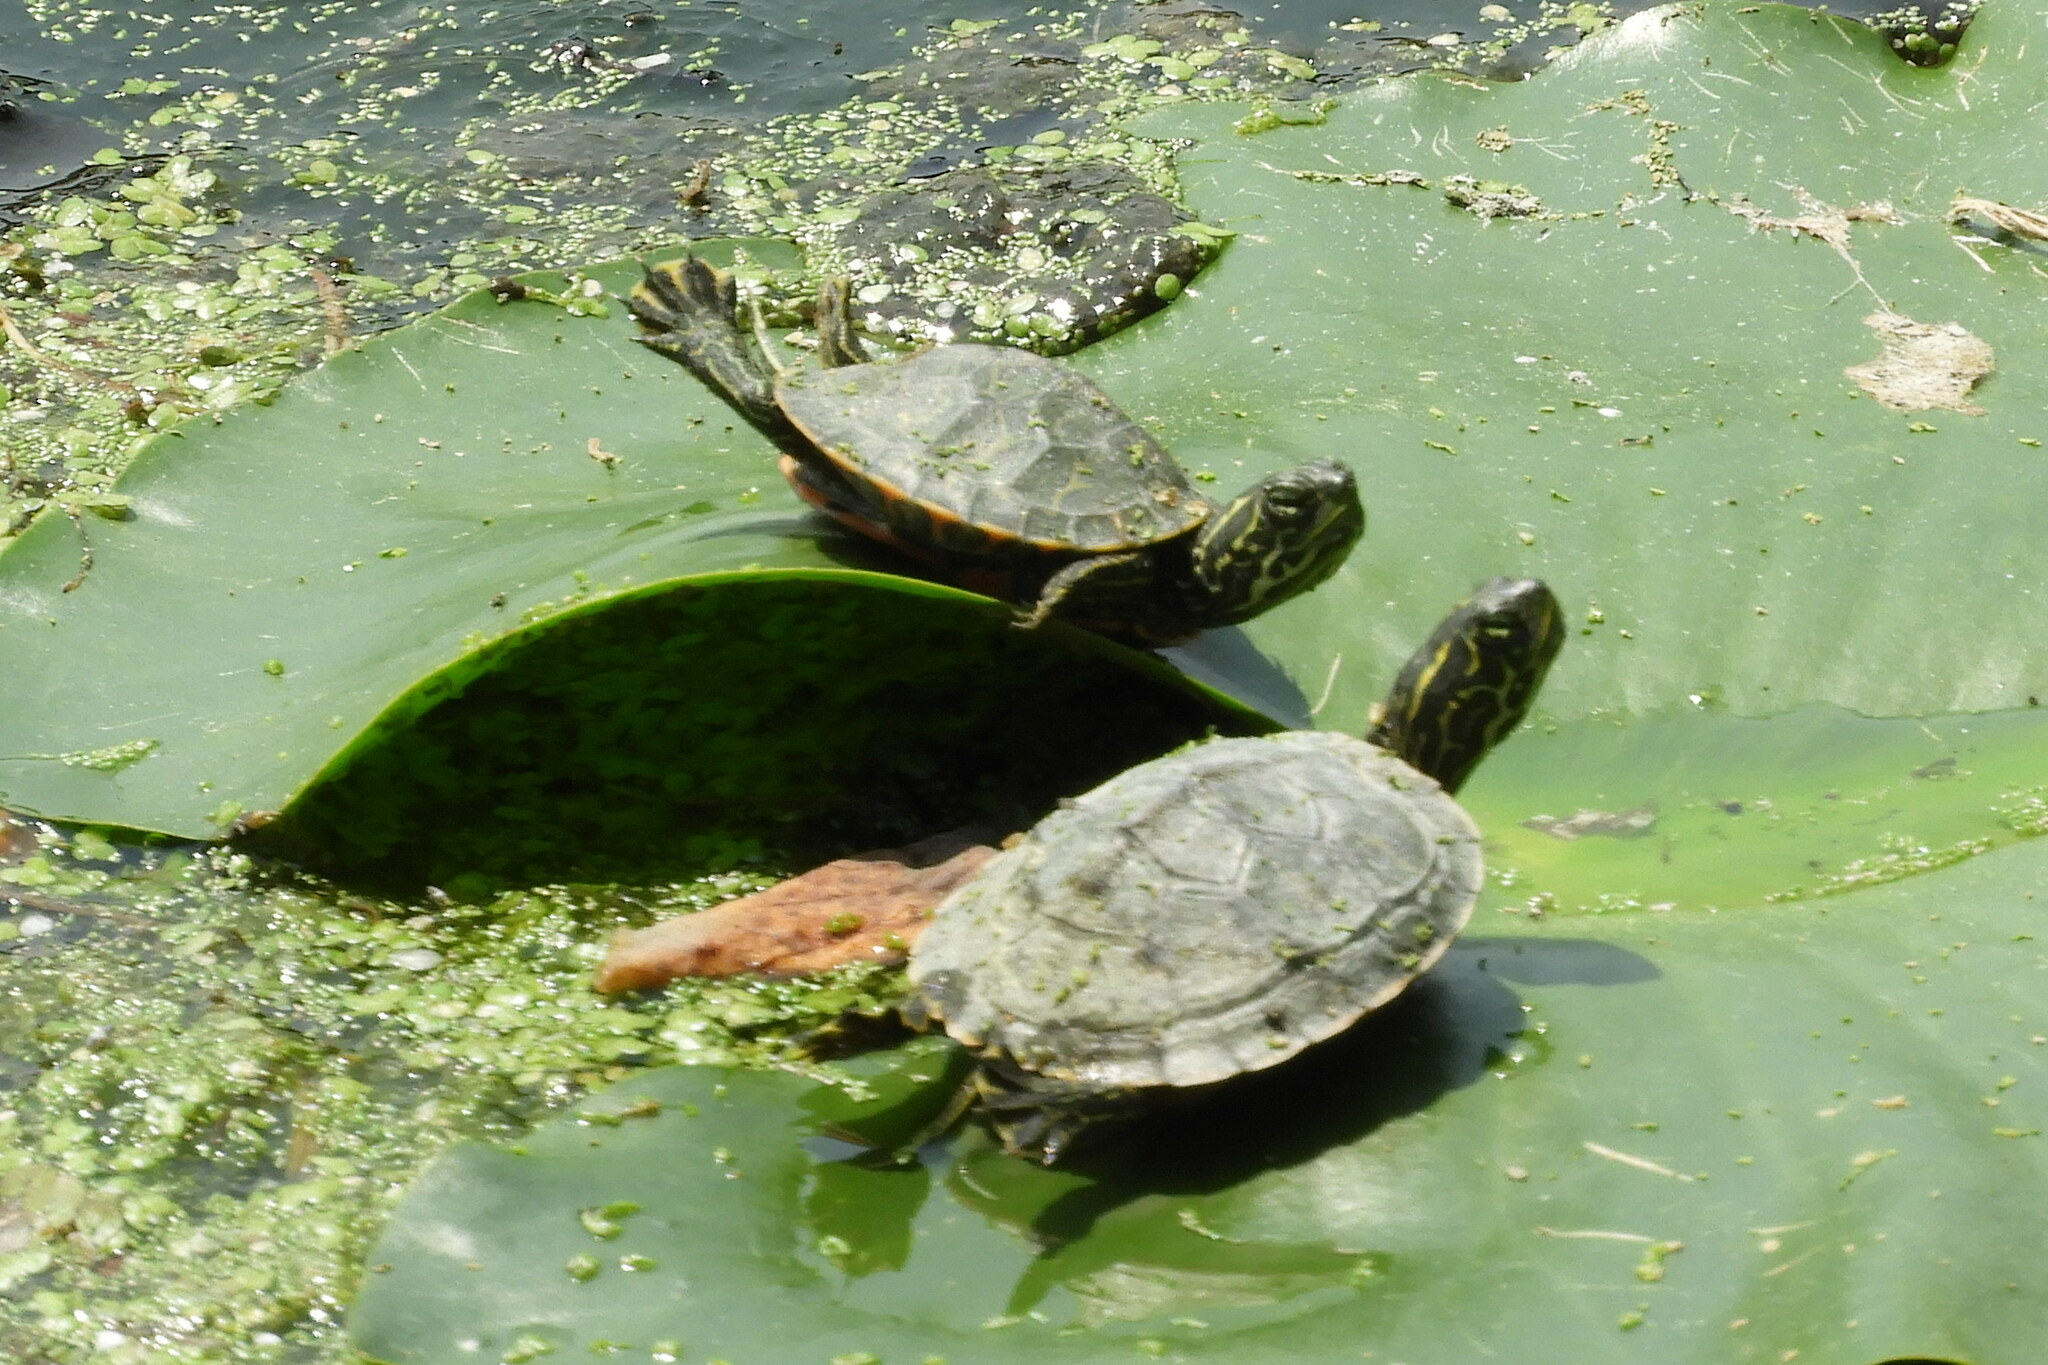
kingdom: Animalia
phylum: Chordata
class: Testudines
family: Emydidae
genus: Pseudemys
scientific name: Pseudemys rubriventris
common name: American red-bellied turtle
